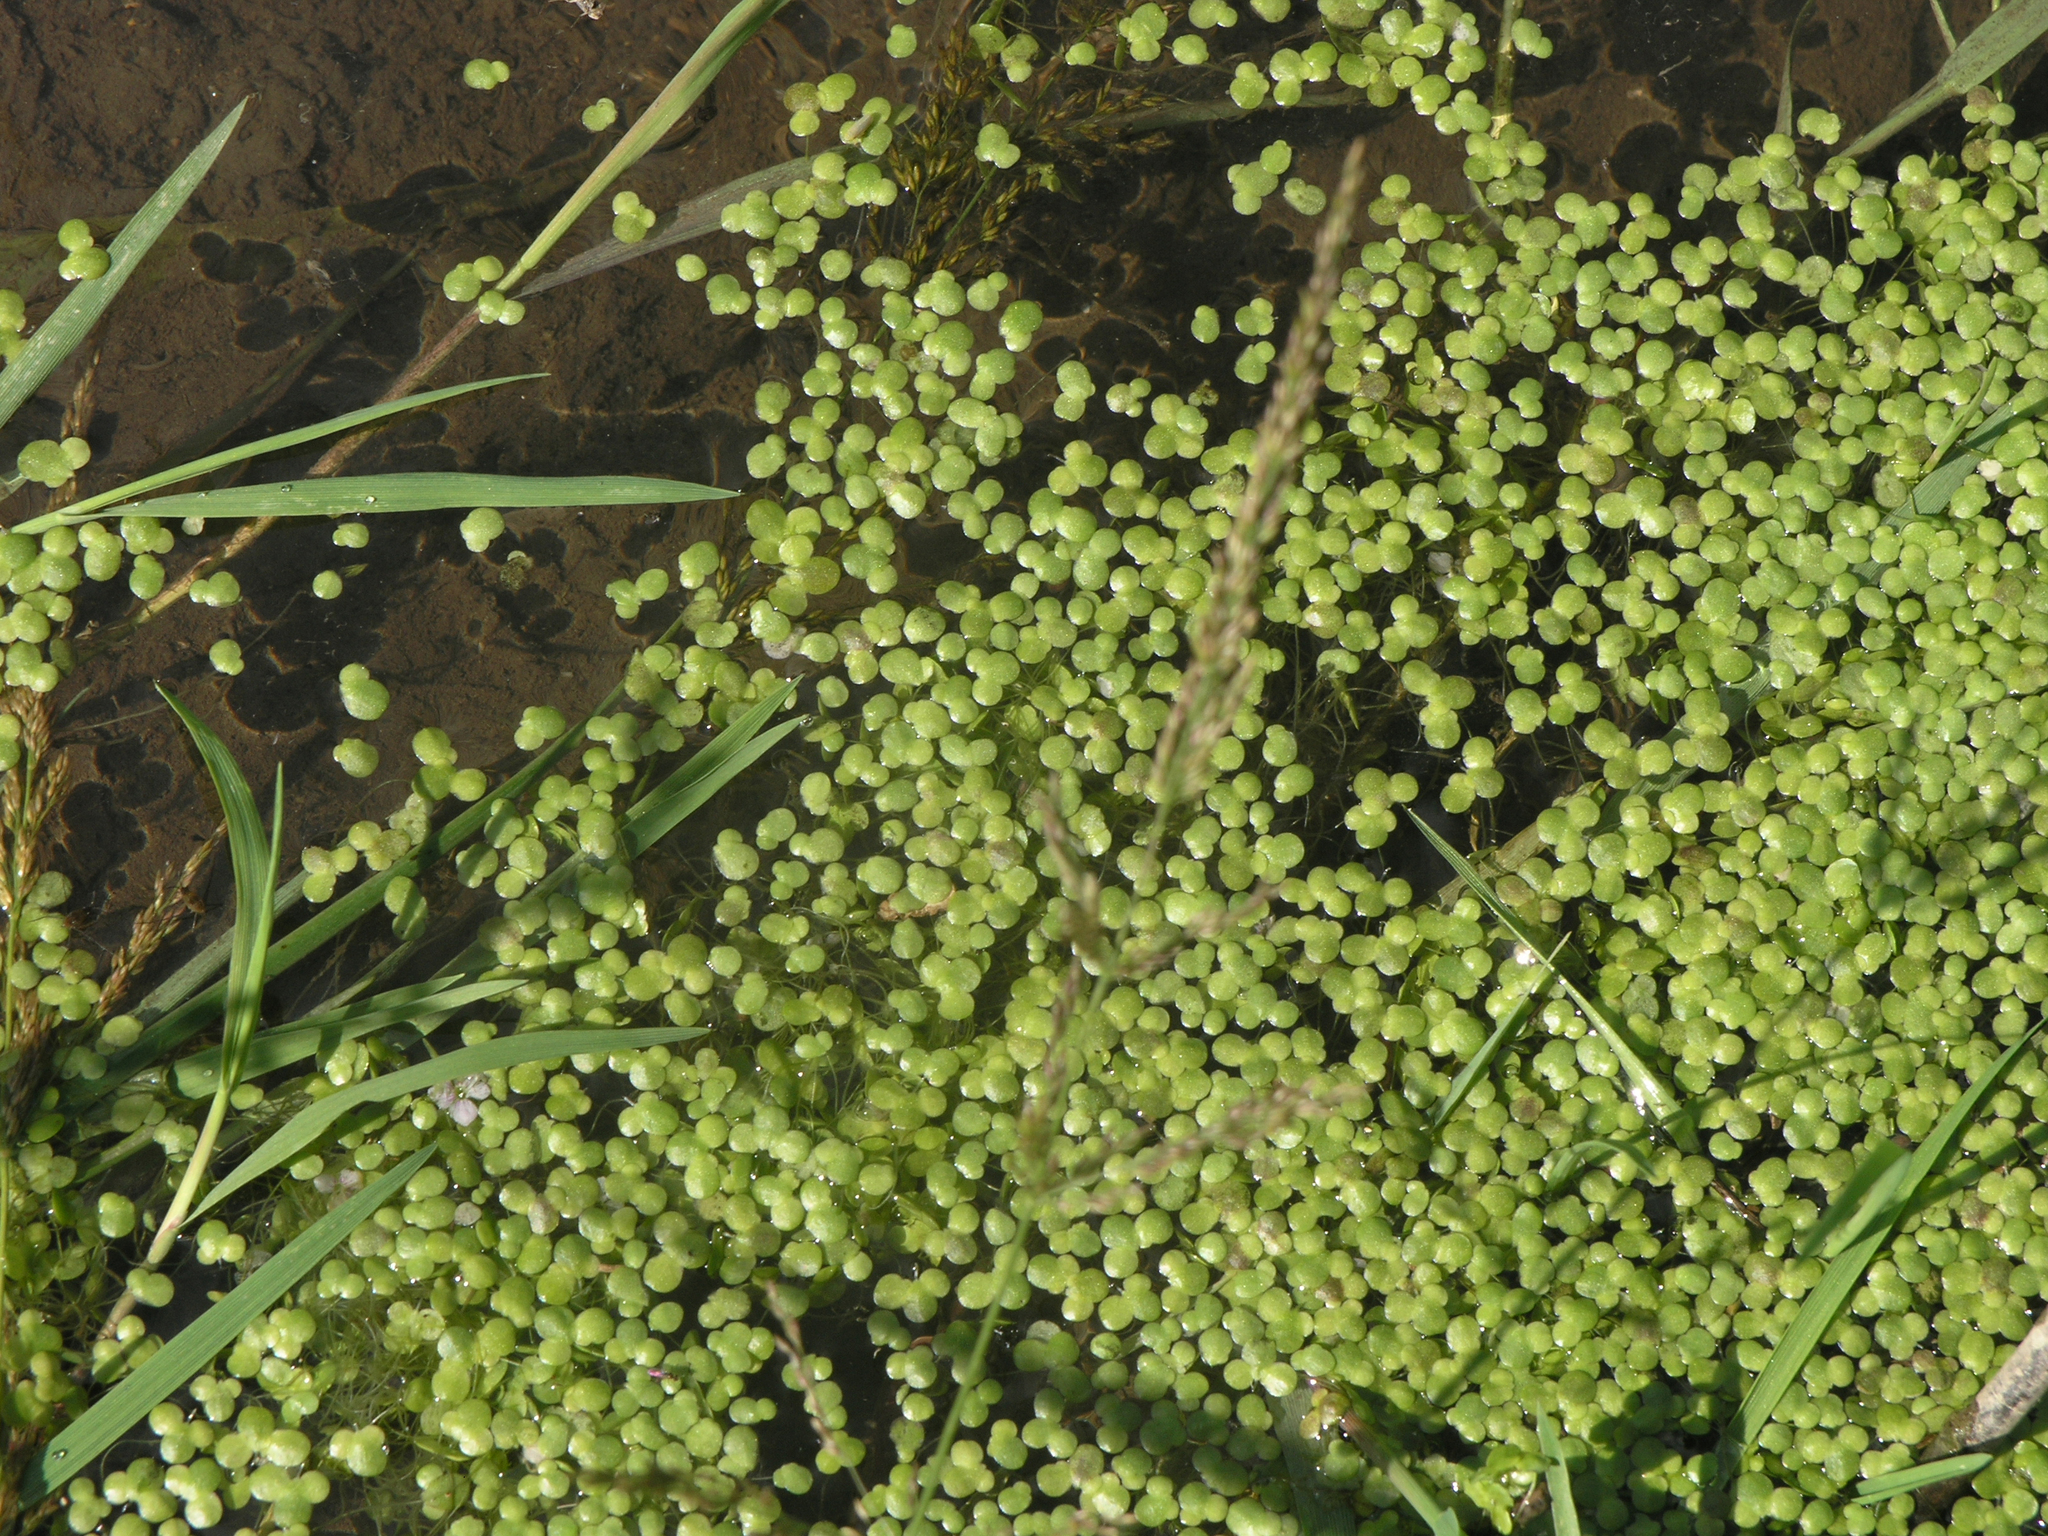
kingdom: Plantae
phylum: Tracheophyta
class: Liliopsida
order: Alismatales
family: Araceae
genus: Lemna
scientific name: Lemna minor
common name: Common duckweed
